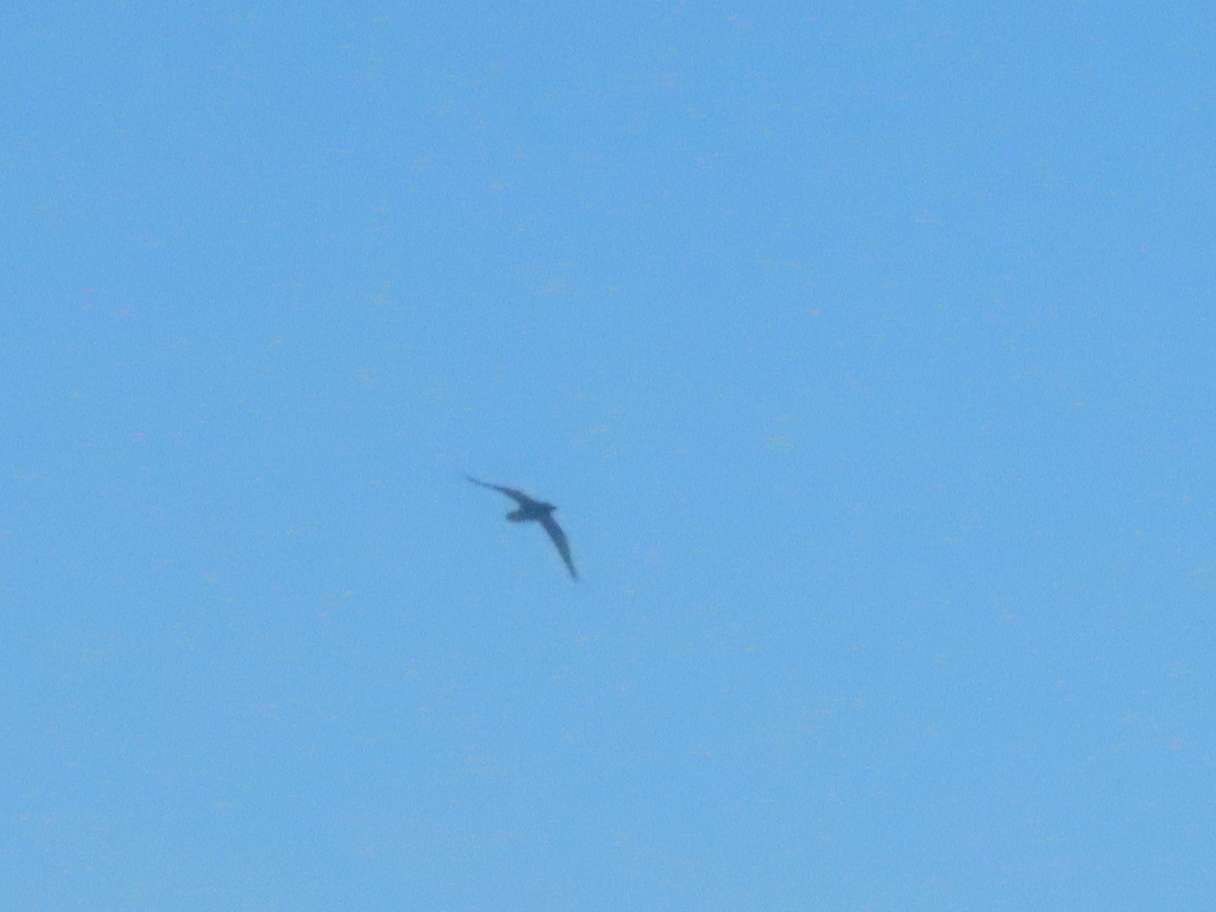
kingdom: Animalia
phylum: Chordata
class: Aves
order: Passeriformes
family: Corvidae
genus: Corvus
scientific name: Corvus corax
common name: Common raven
